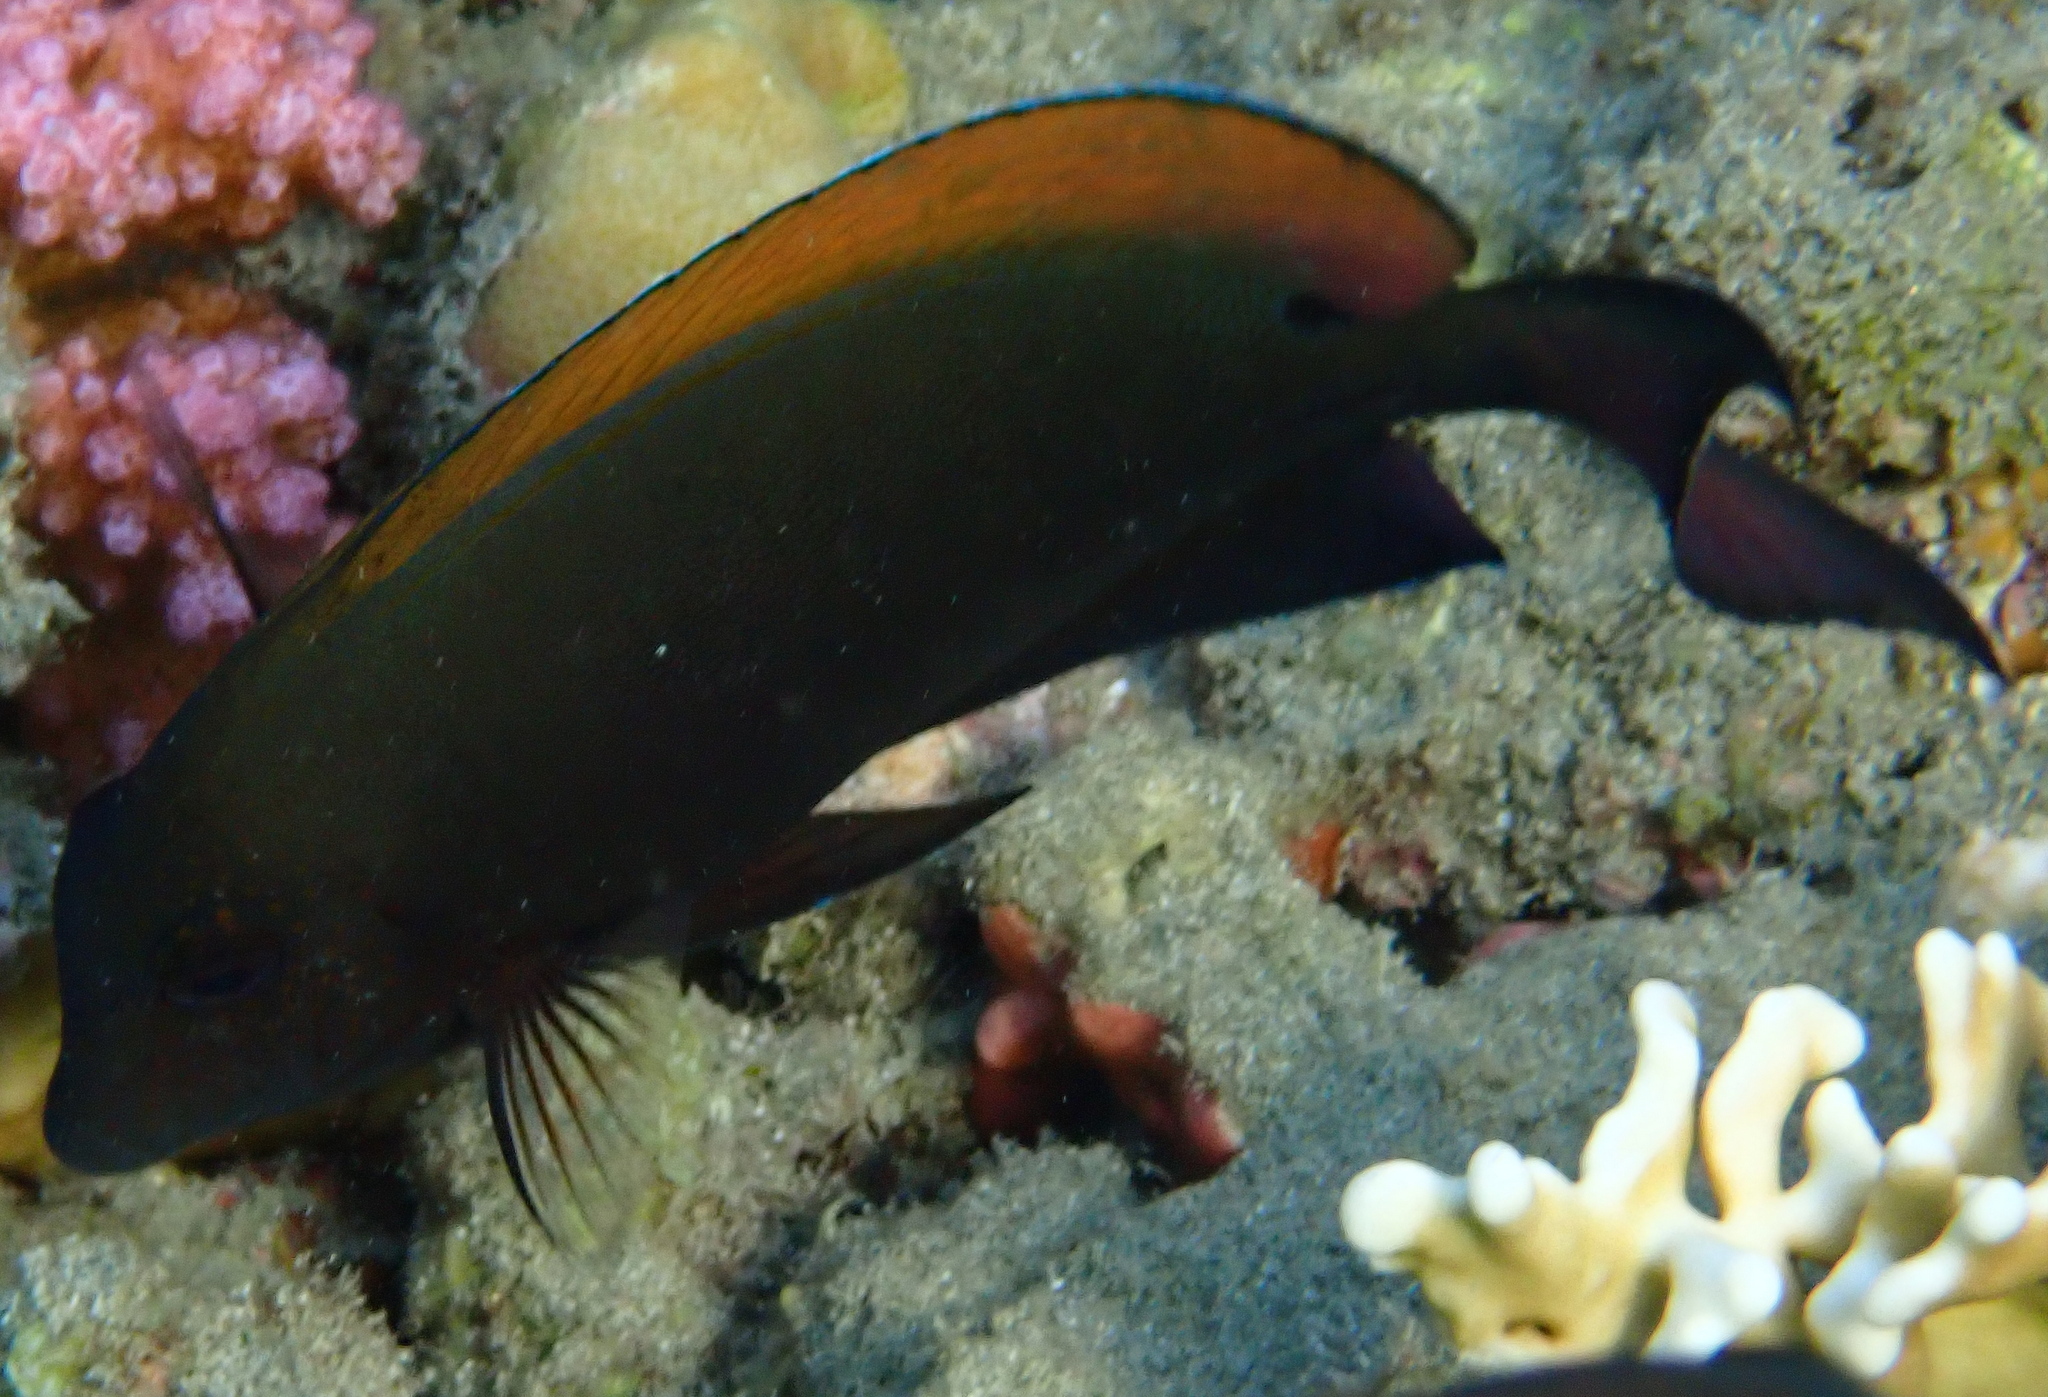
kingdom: Animalia
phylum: Chordata
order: Perciformes
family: Acanthuridae
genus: Acanthurus
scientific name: Acanthurus nigrofuscus
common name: Blackspot surgeonfish
